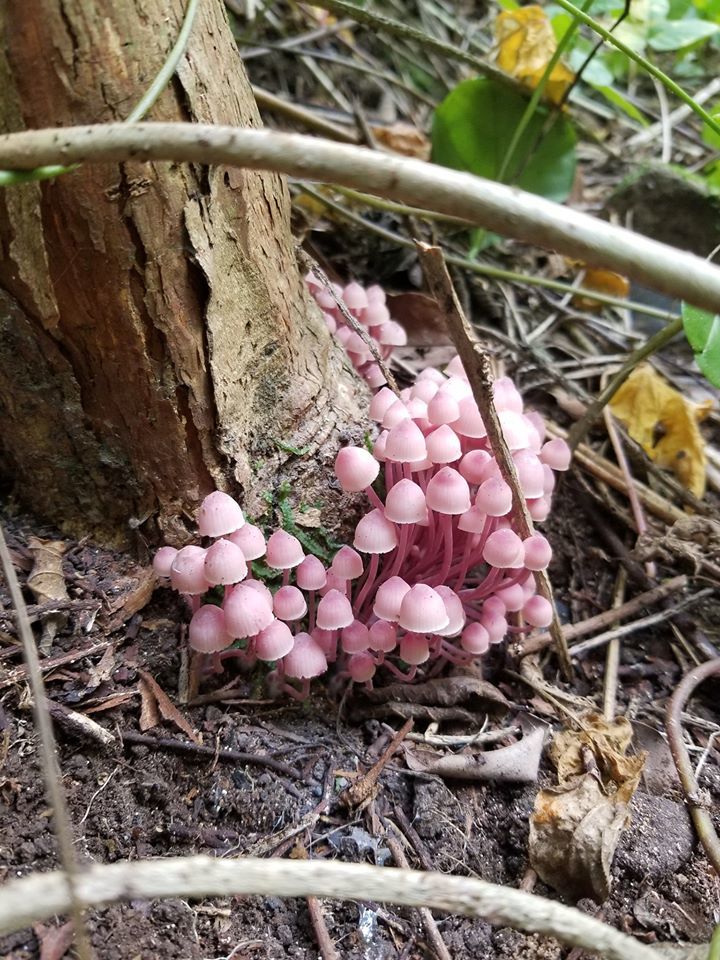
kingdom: Fungi
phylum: Basidiomycota
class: Agaricomycetes
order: Agaricales
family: Mycenaceae
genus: Mycena
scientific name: Mycena clarkeana
